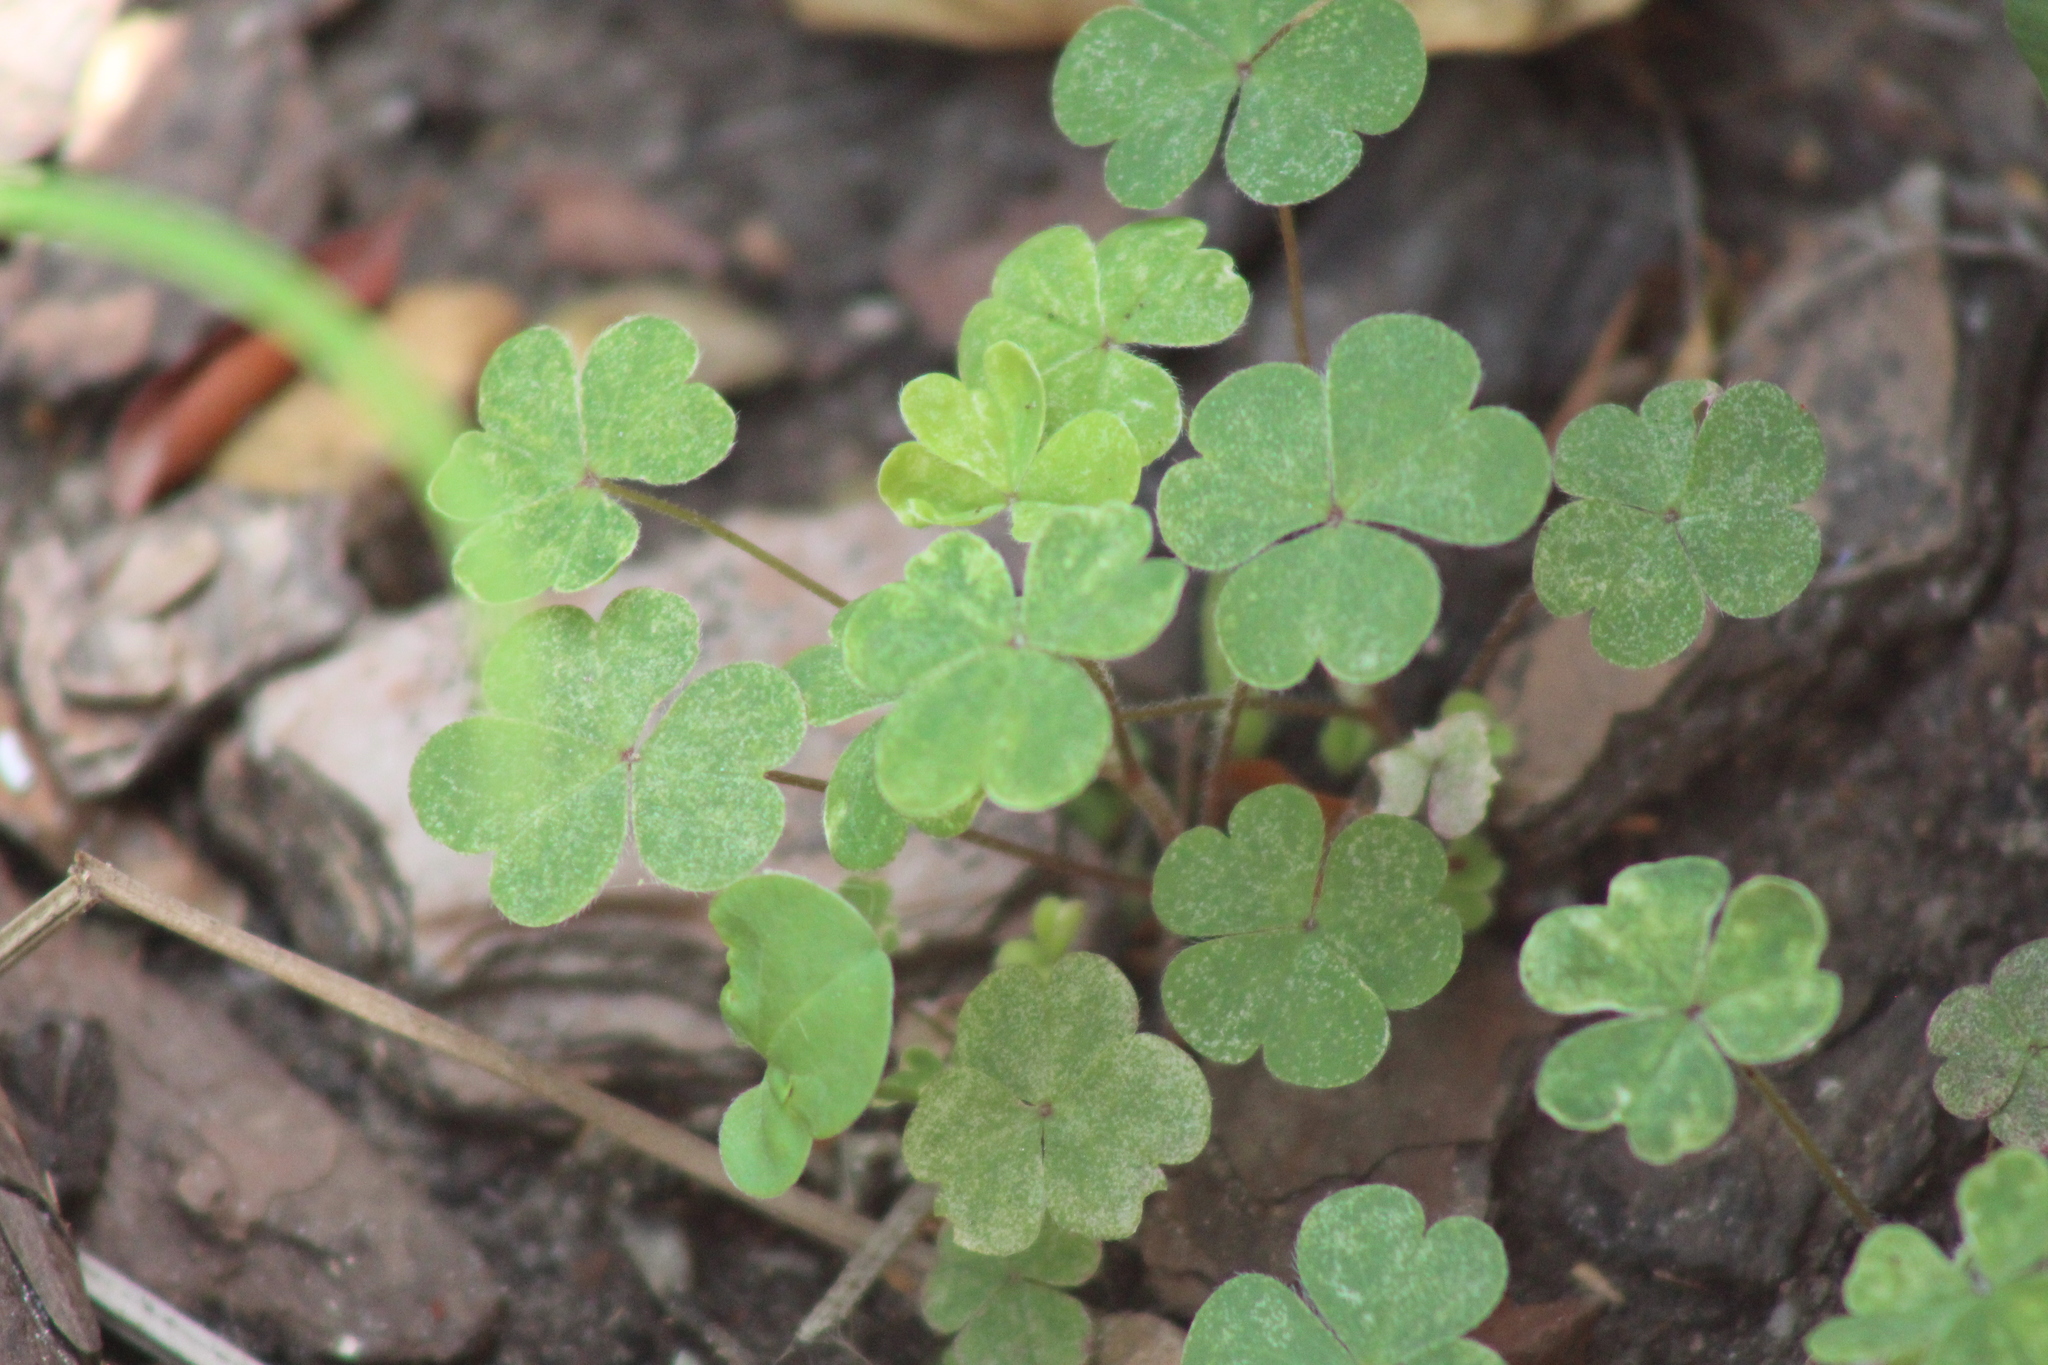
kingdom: Plantae
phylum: Tracheophyta
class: Magnoliopsida
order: Oxalidales
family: Oxalidaceae
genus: Oxalis
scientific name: Oxalis corniculata
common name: Procumbent yellow-sorrel
